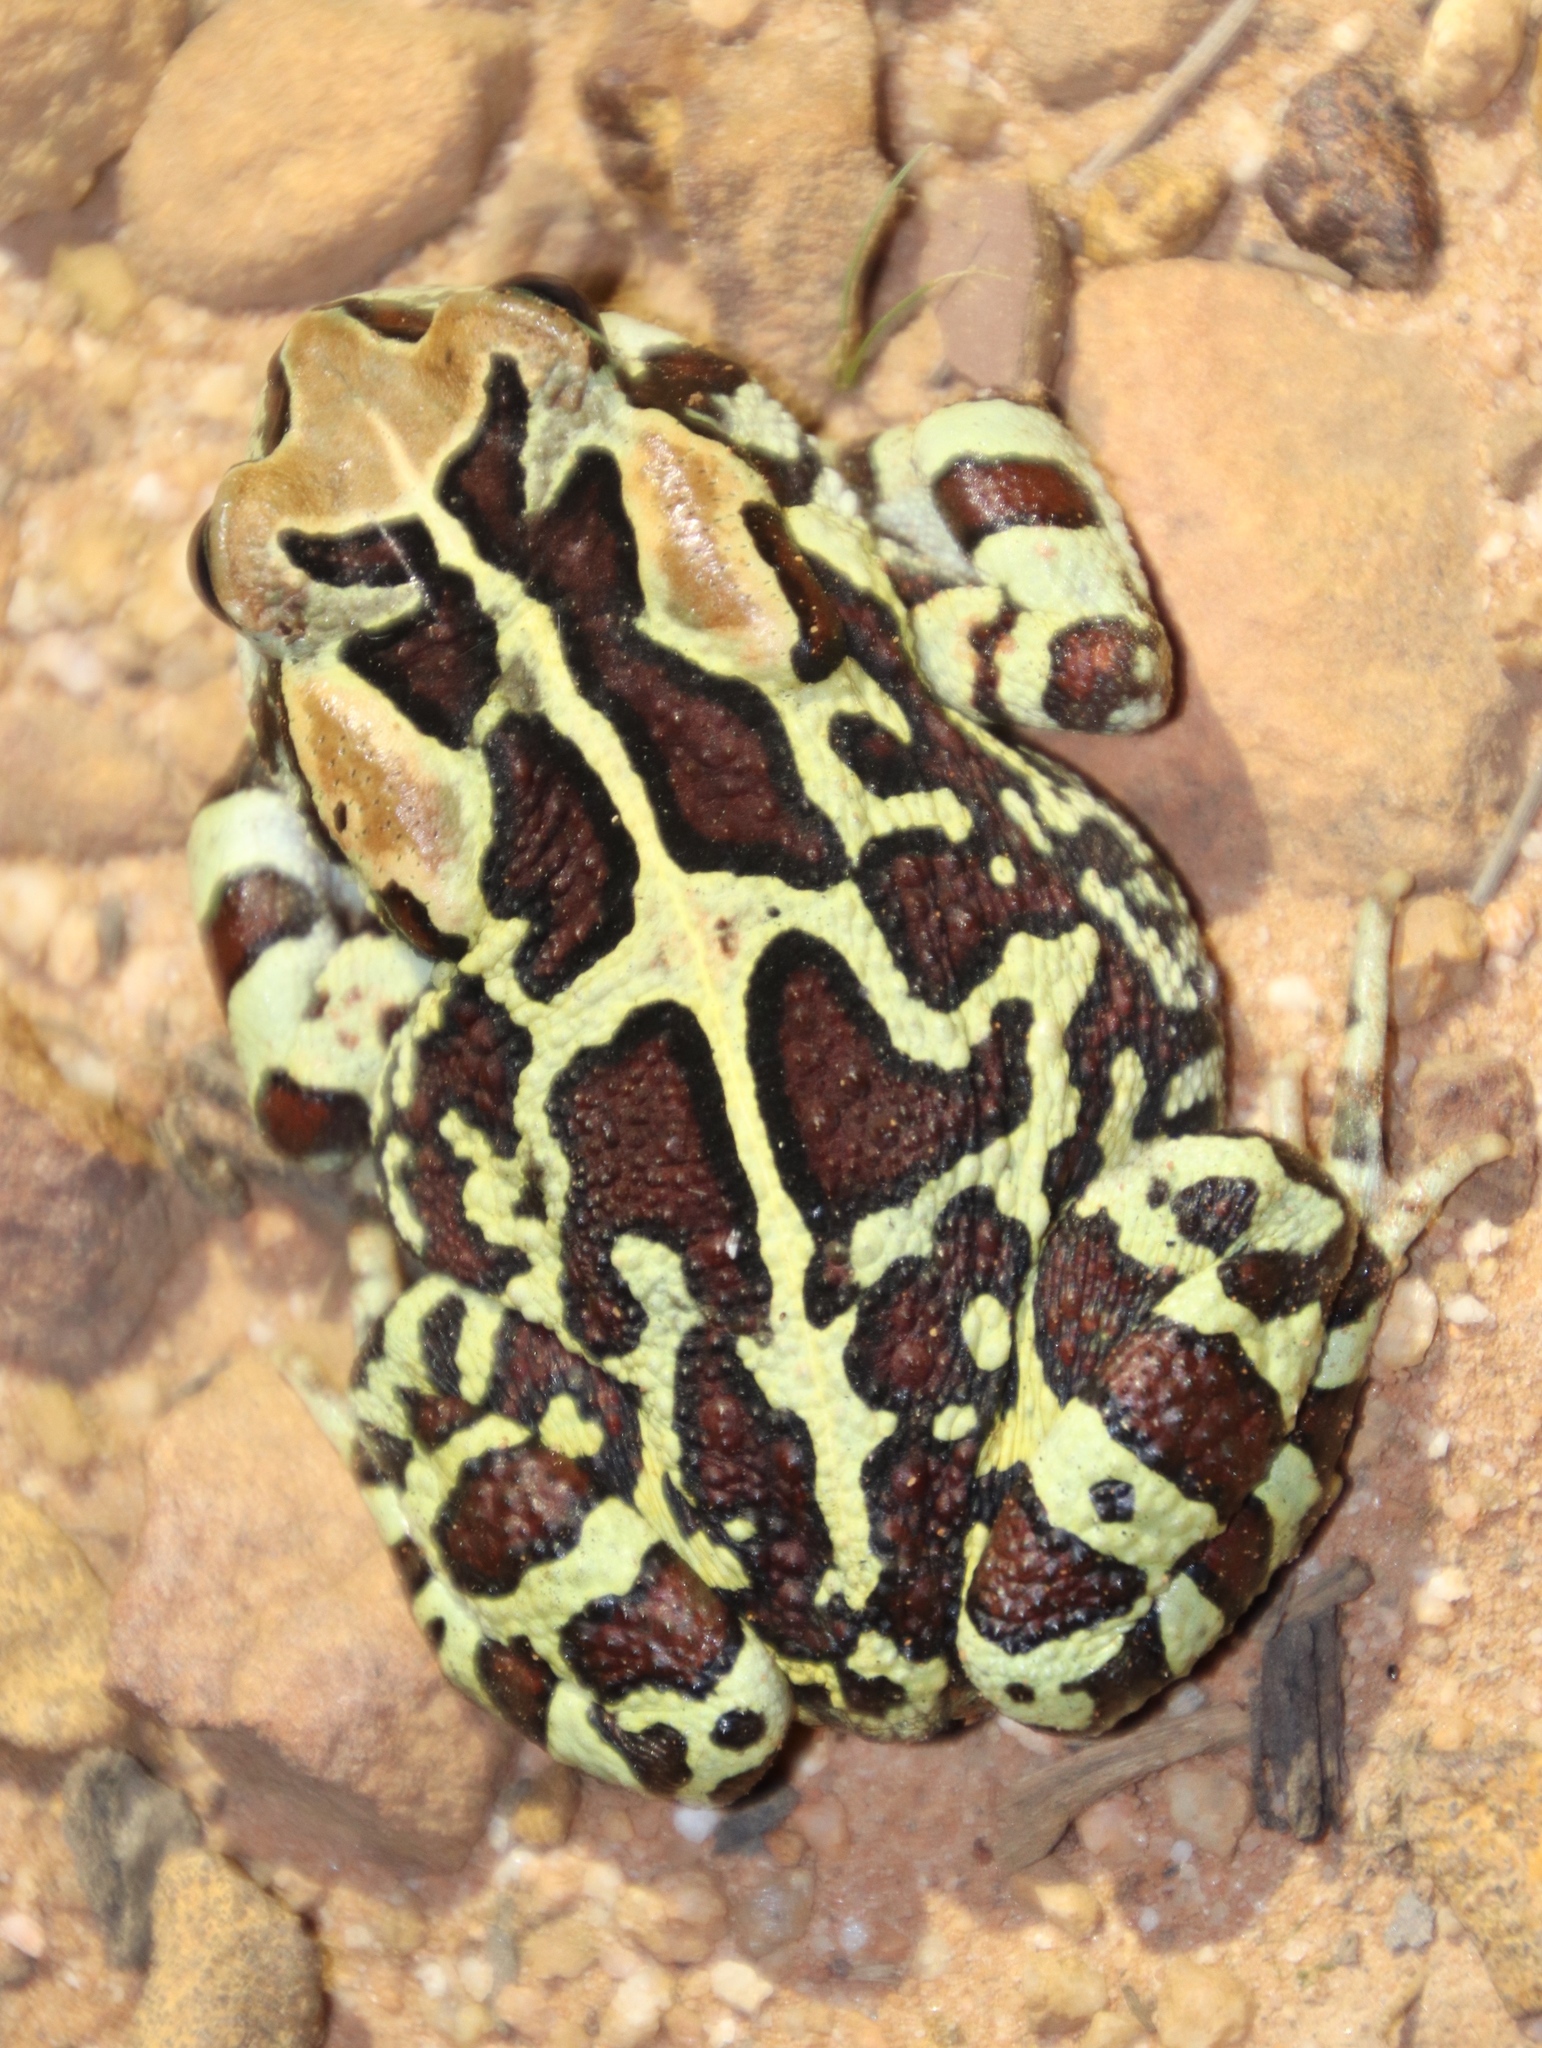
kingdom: Animalia
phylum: Chordata
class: Amphibia
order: Anura
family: Bufonidae
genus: Sclerophrys
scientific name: Sclerophrys pantherina
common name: Panther toad
